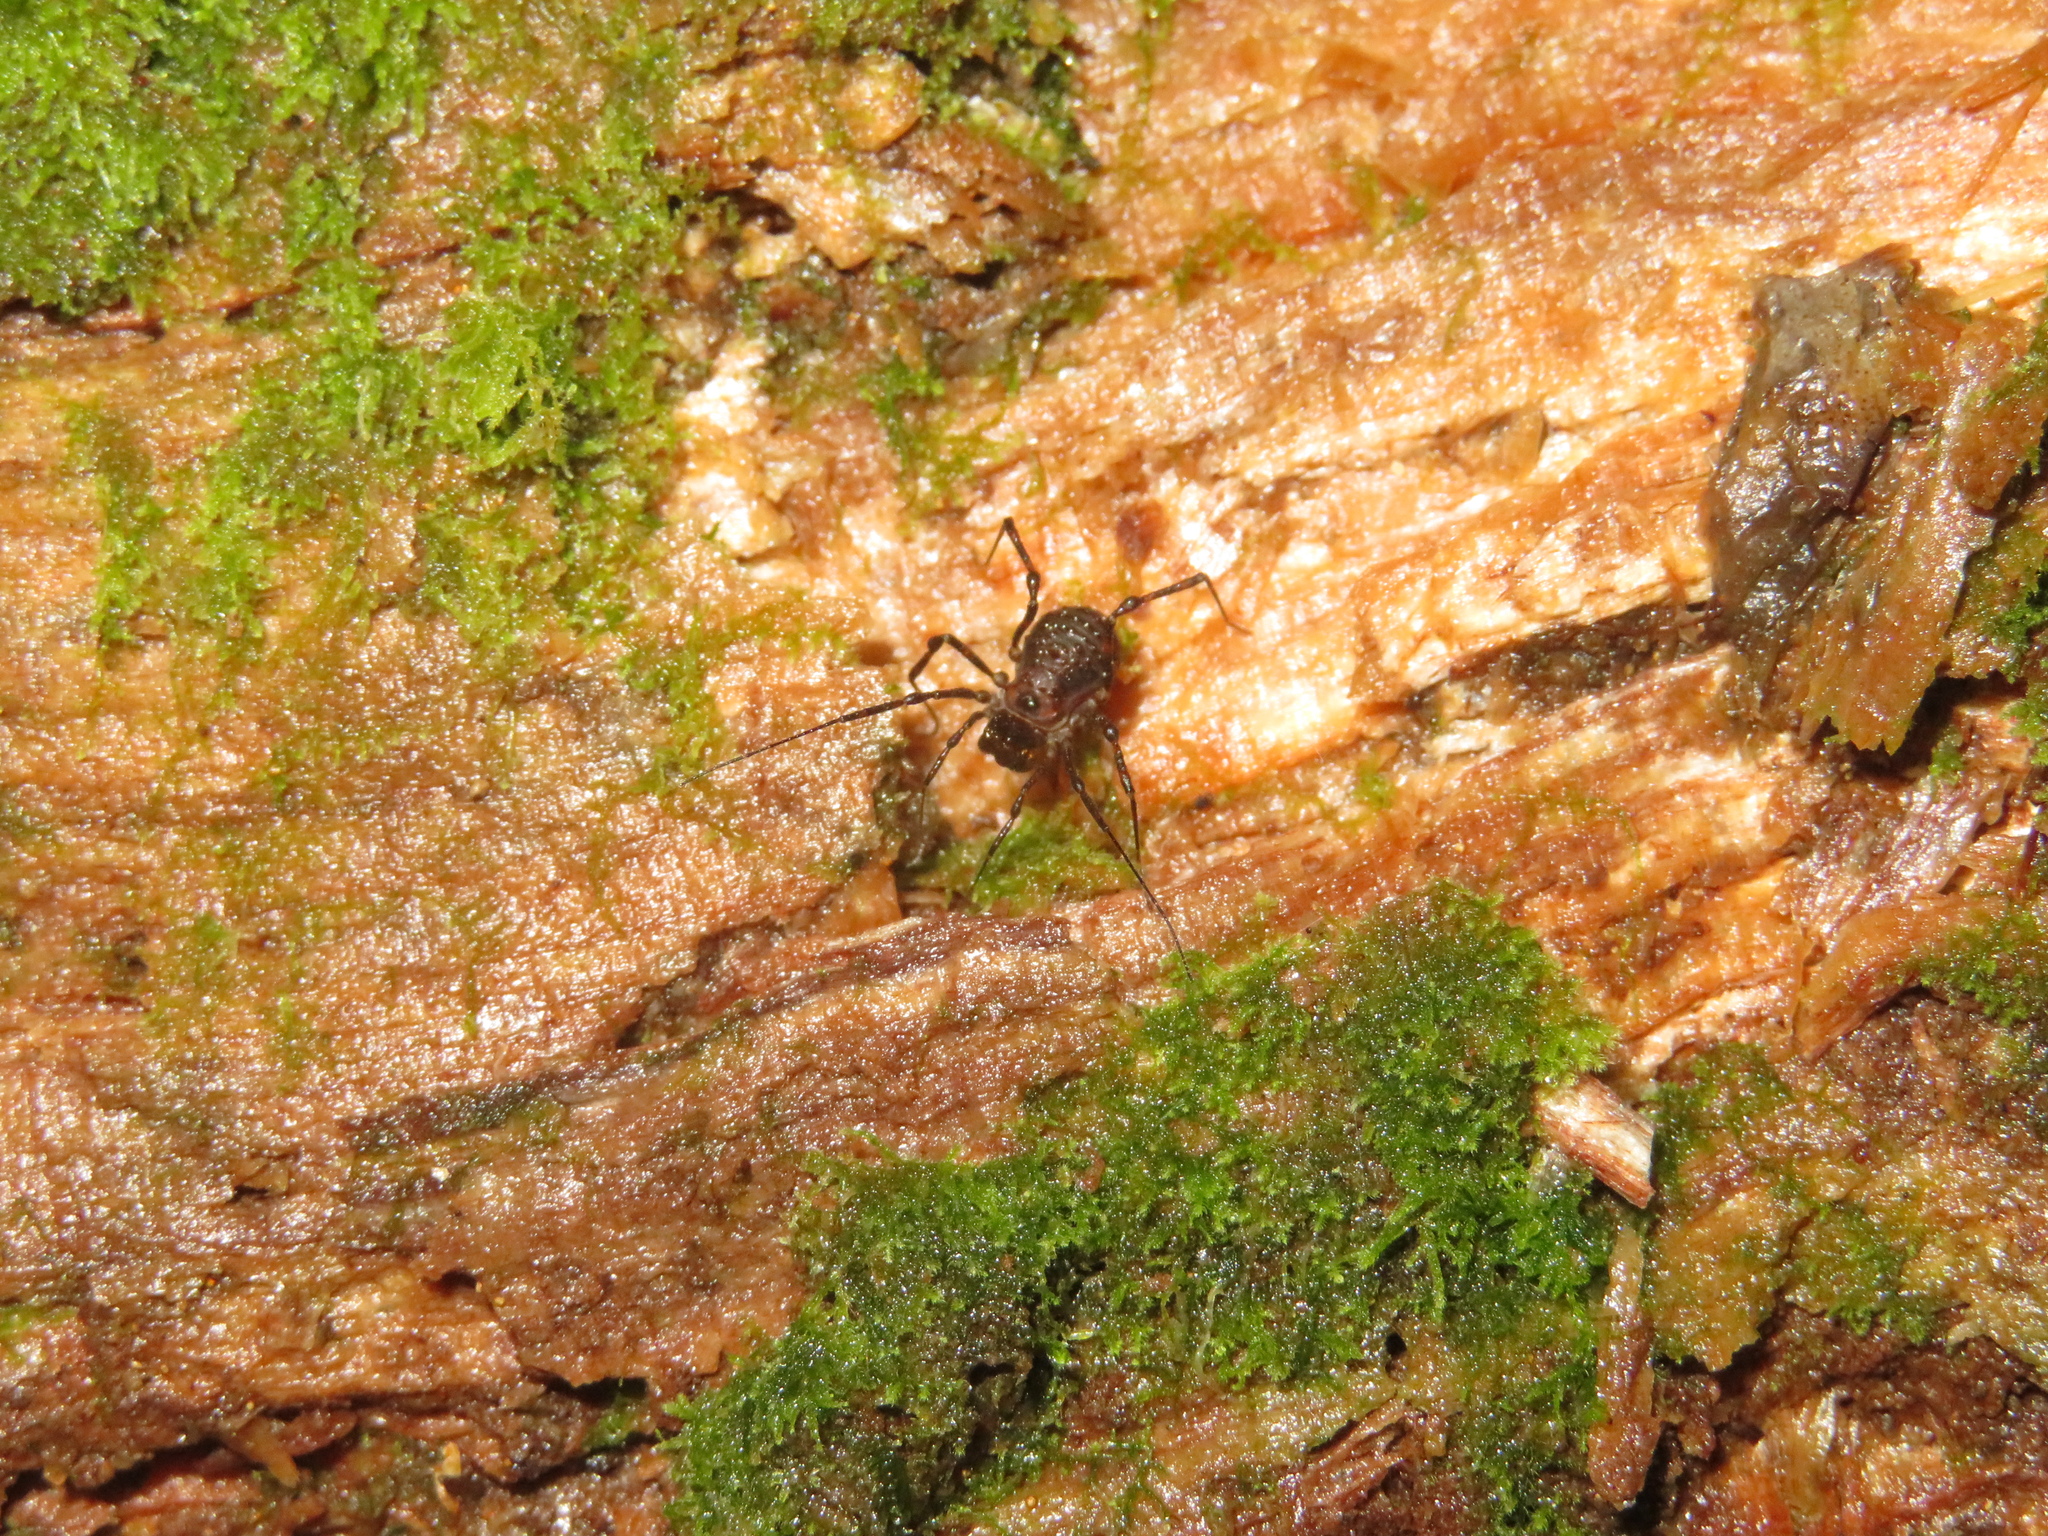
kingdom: Animalia
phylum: Arthropoda
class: Arachnida
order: Opiliones
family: Triaenonychidae
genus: Hendea
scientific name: Hendea myersi
